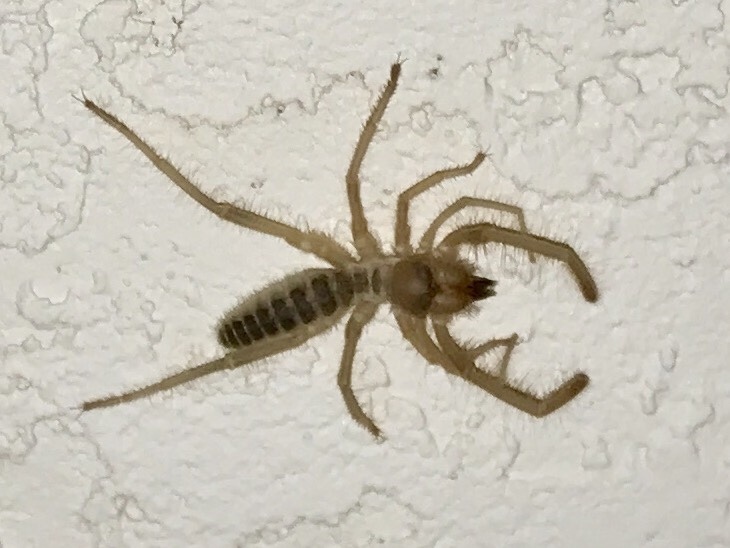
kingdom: Animalia
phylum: Arthropoda
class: Arachnida
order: Solifugae
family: Eremobatidae
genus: Eremocosta
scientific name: Eremocosta striata
